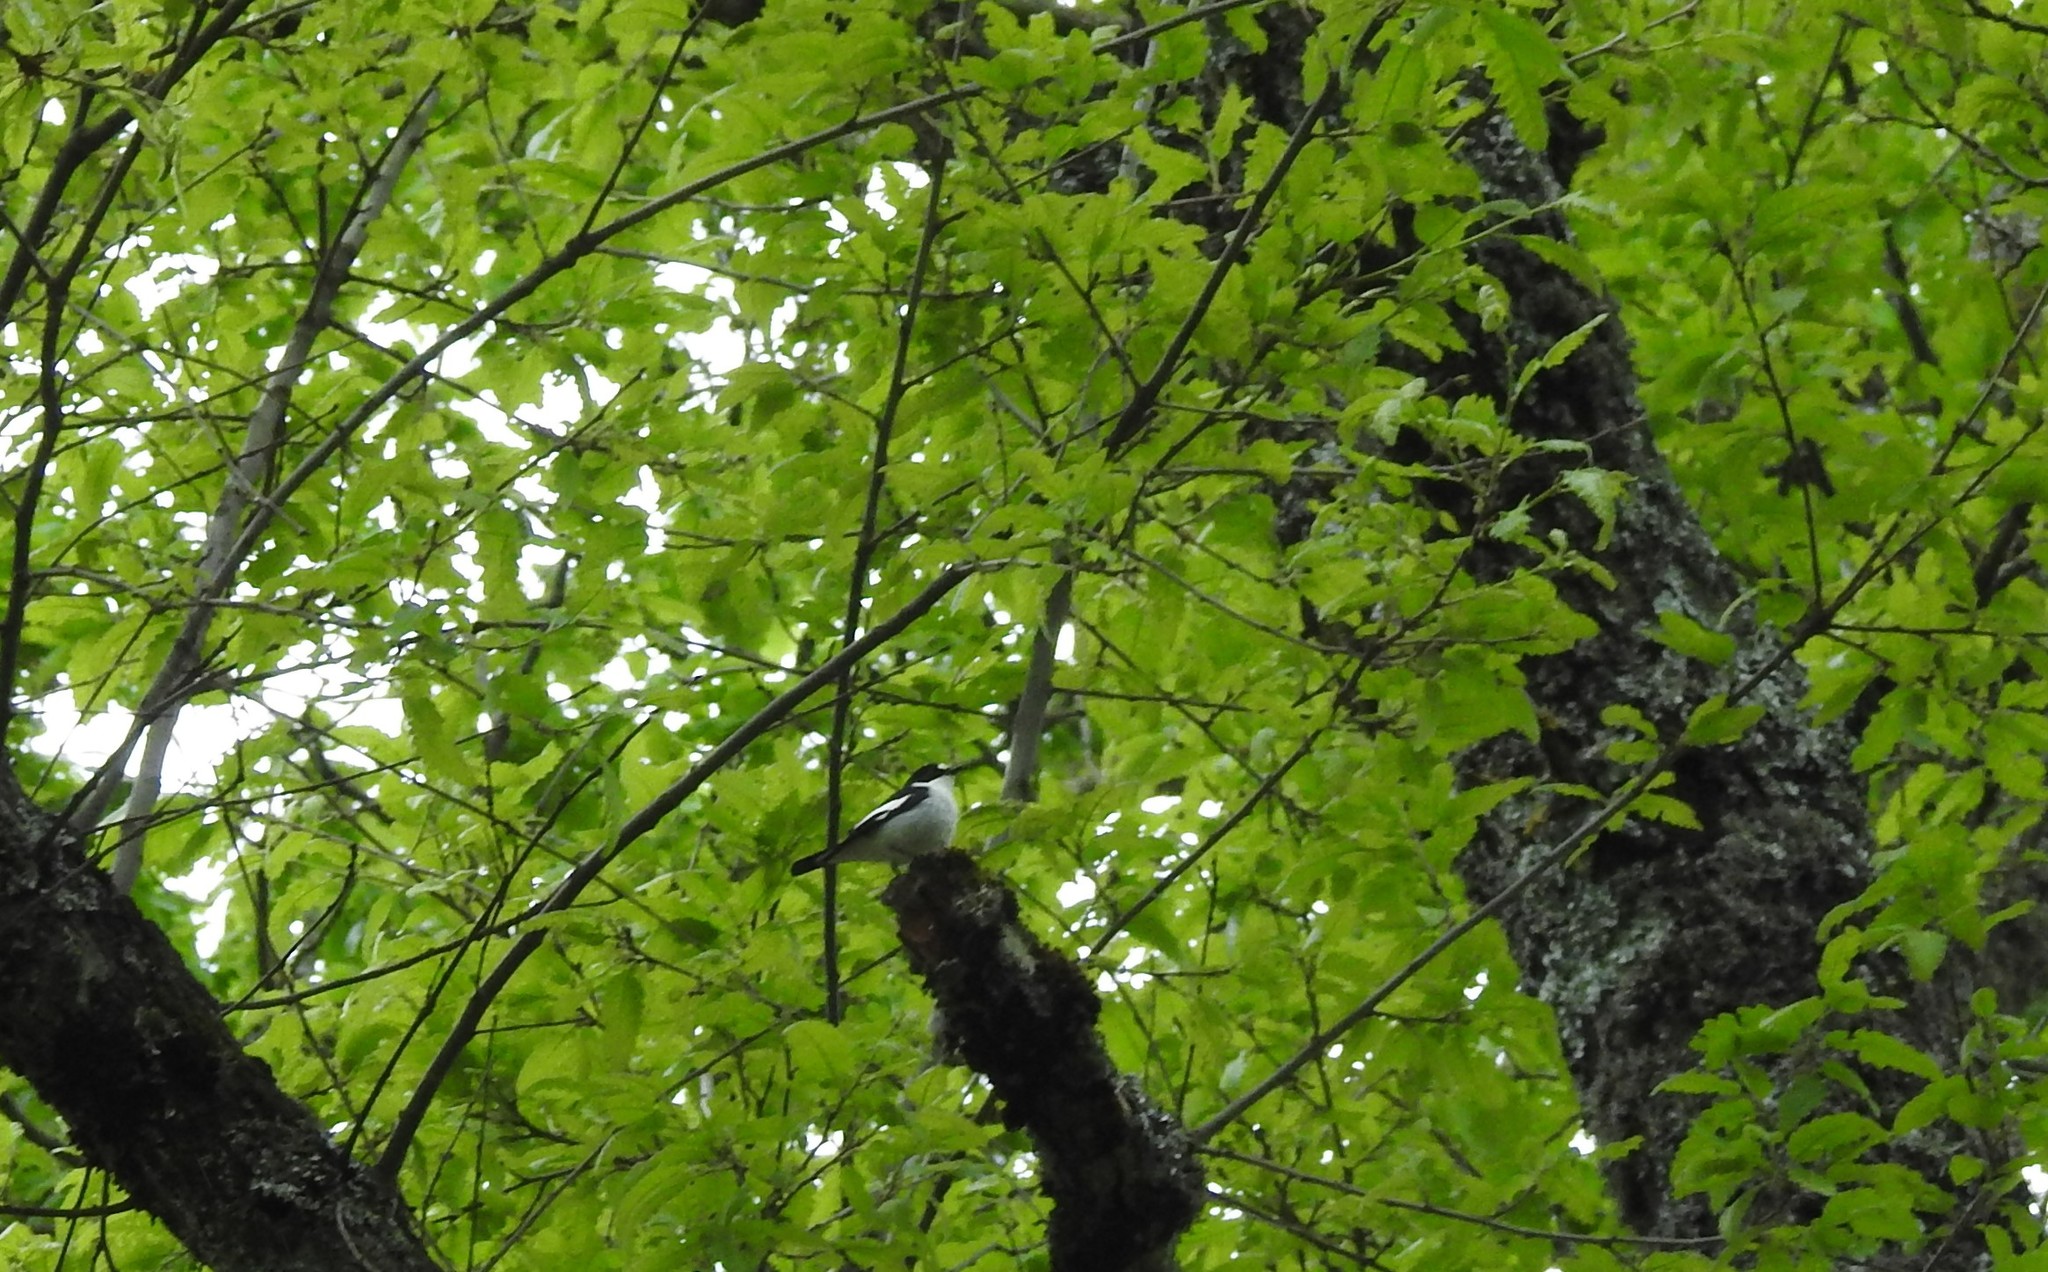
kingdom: Animalia
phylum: Chordata
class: Aves
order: Passeriformes
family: Muscicapidae
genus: Ficedula
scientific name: Ficedula speculigera
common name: Atlas pied flycatcher
